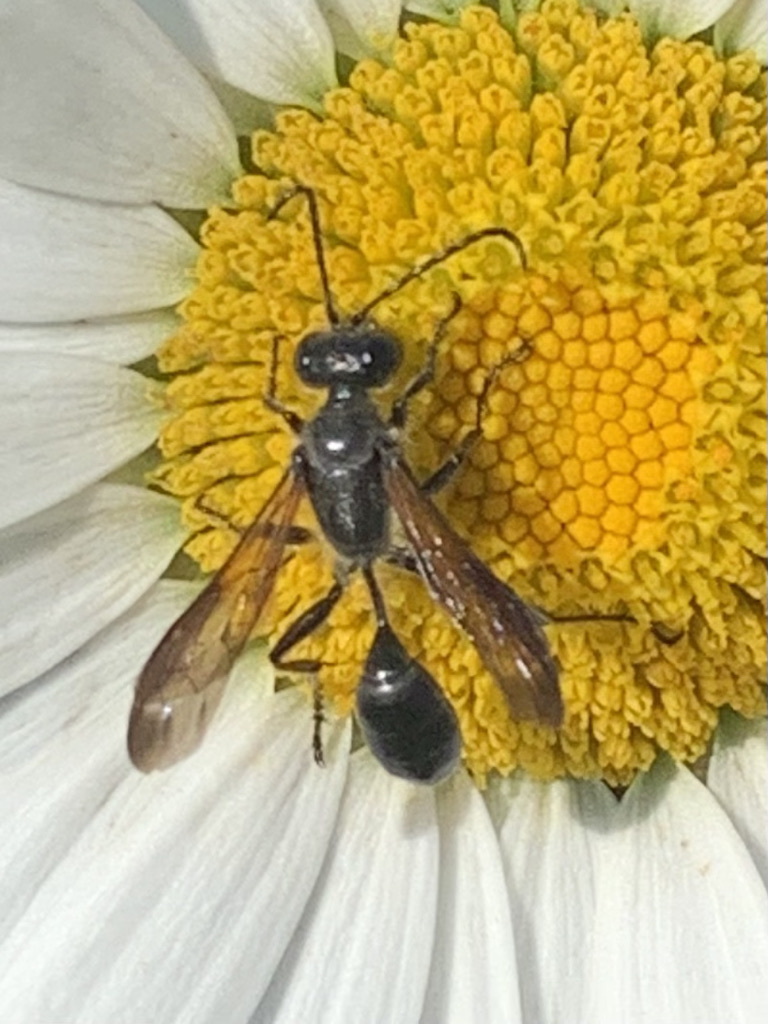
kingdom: Animalia
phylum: Arthropoda
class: Insecta
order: Hymenoptera
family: Sphecidae
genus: Isodontia
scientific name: Isodontia mexicana
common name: Mud dauber
